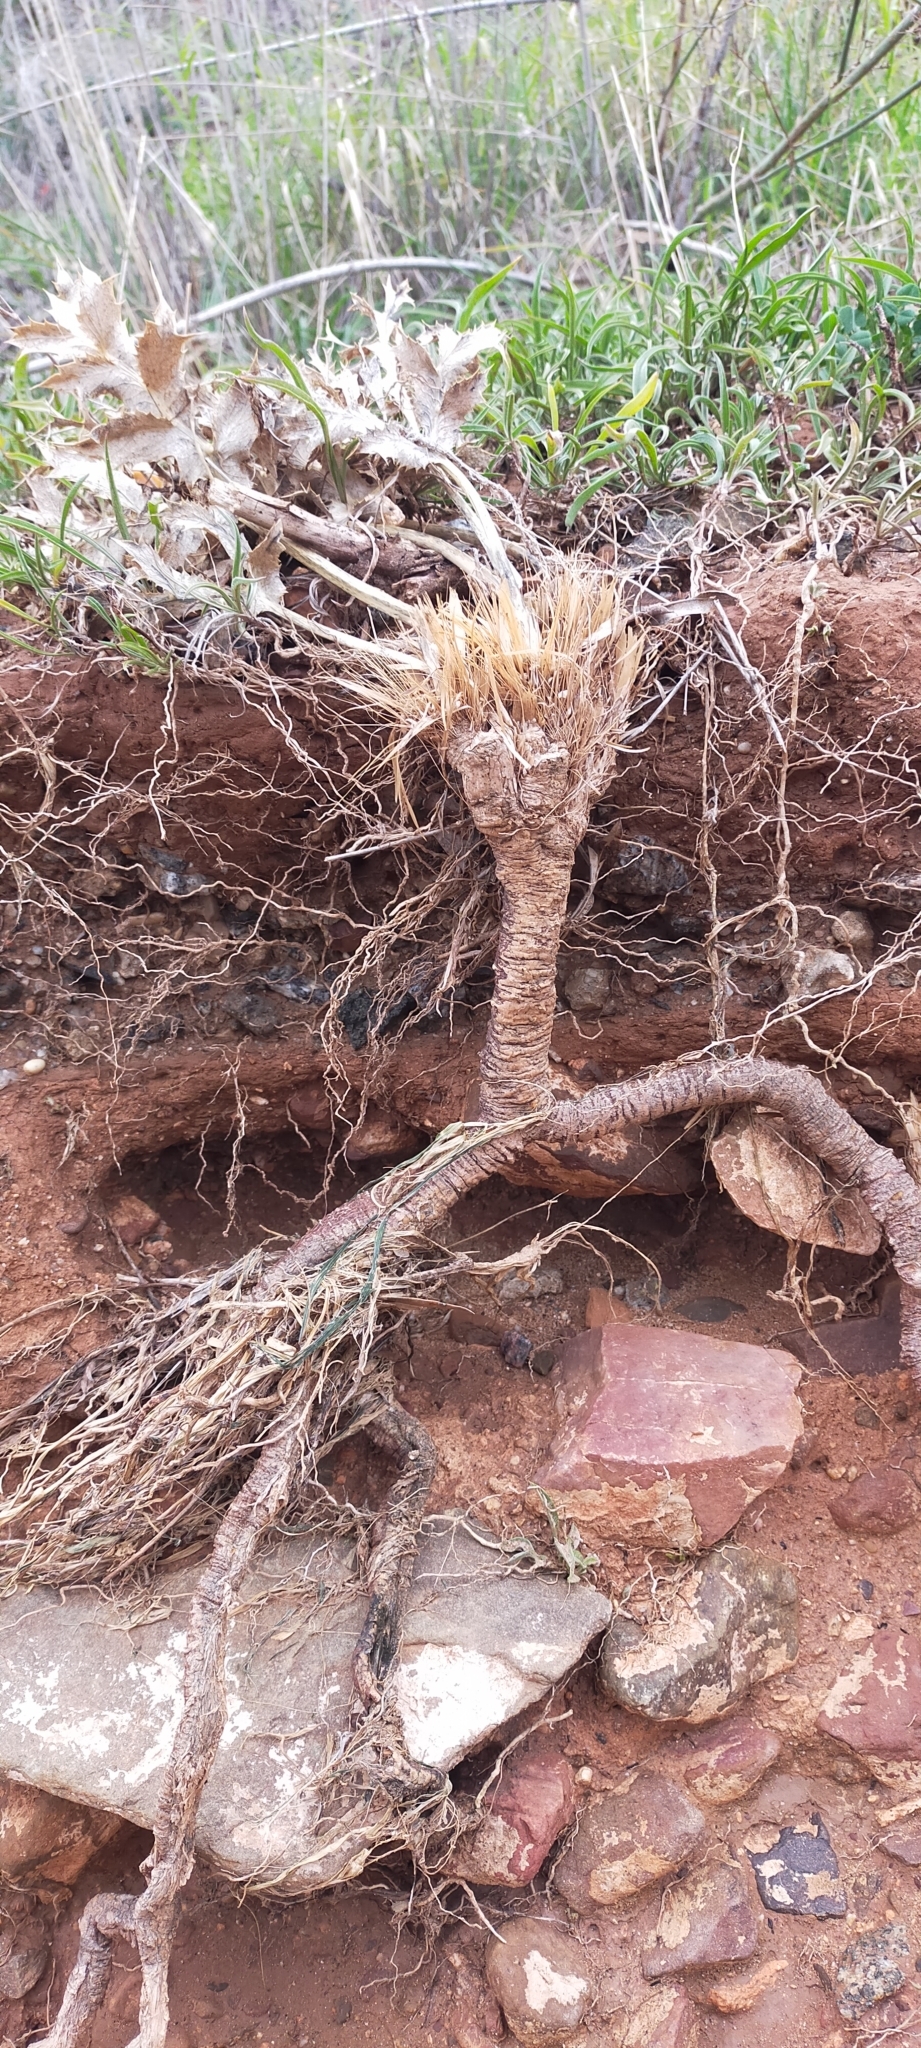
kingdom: Plantae
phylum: Tracheophyta
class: Magnoliopsida
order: Apiales
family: Apiaceae
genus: Eryngium
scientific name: Eryngium campestre
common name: Field eryngo
